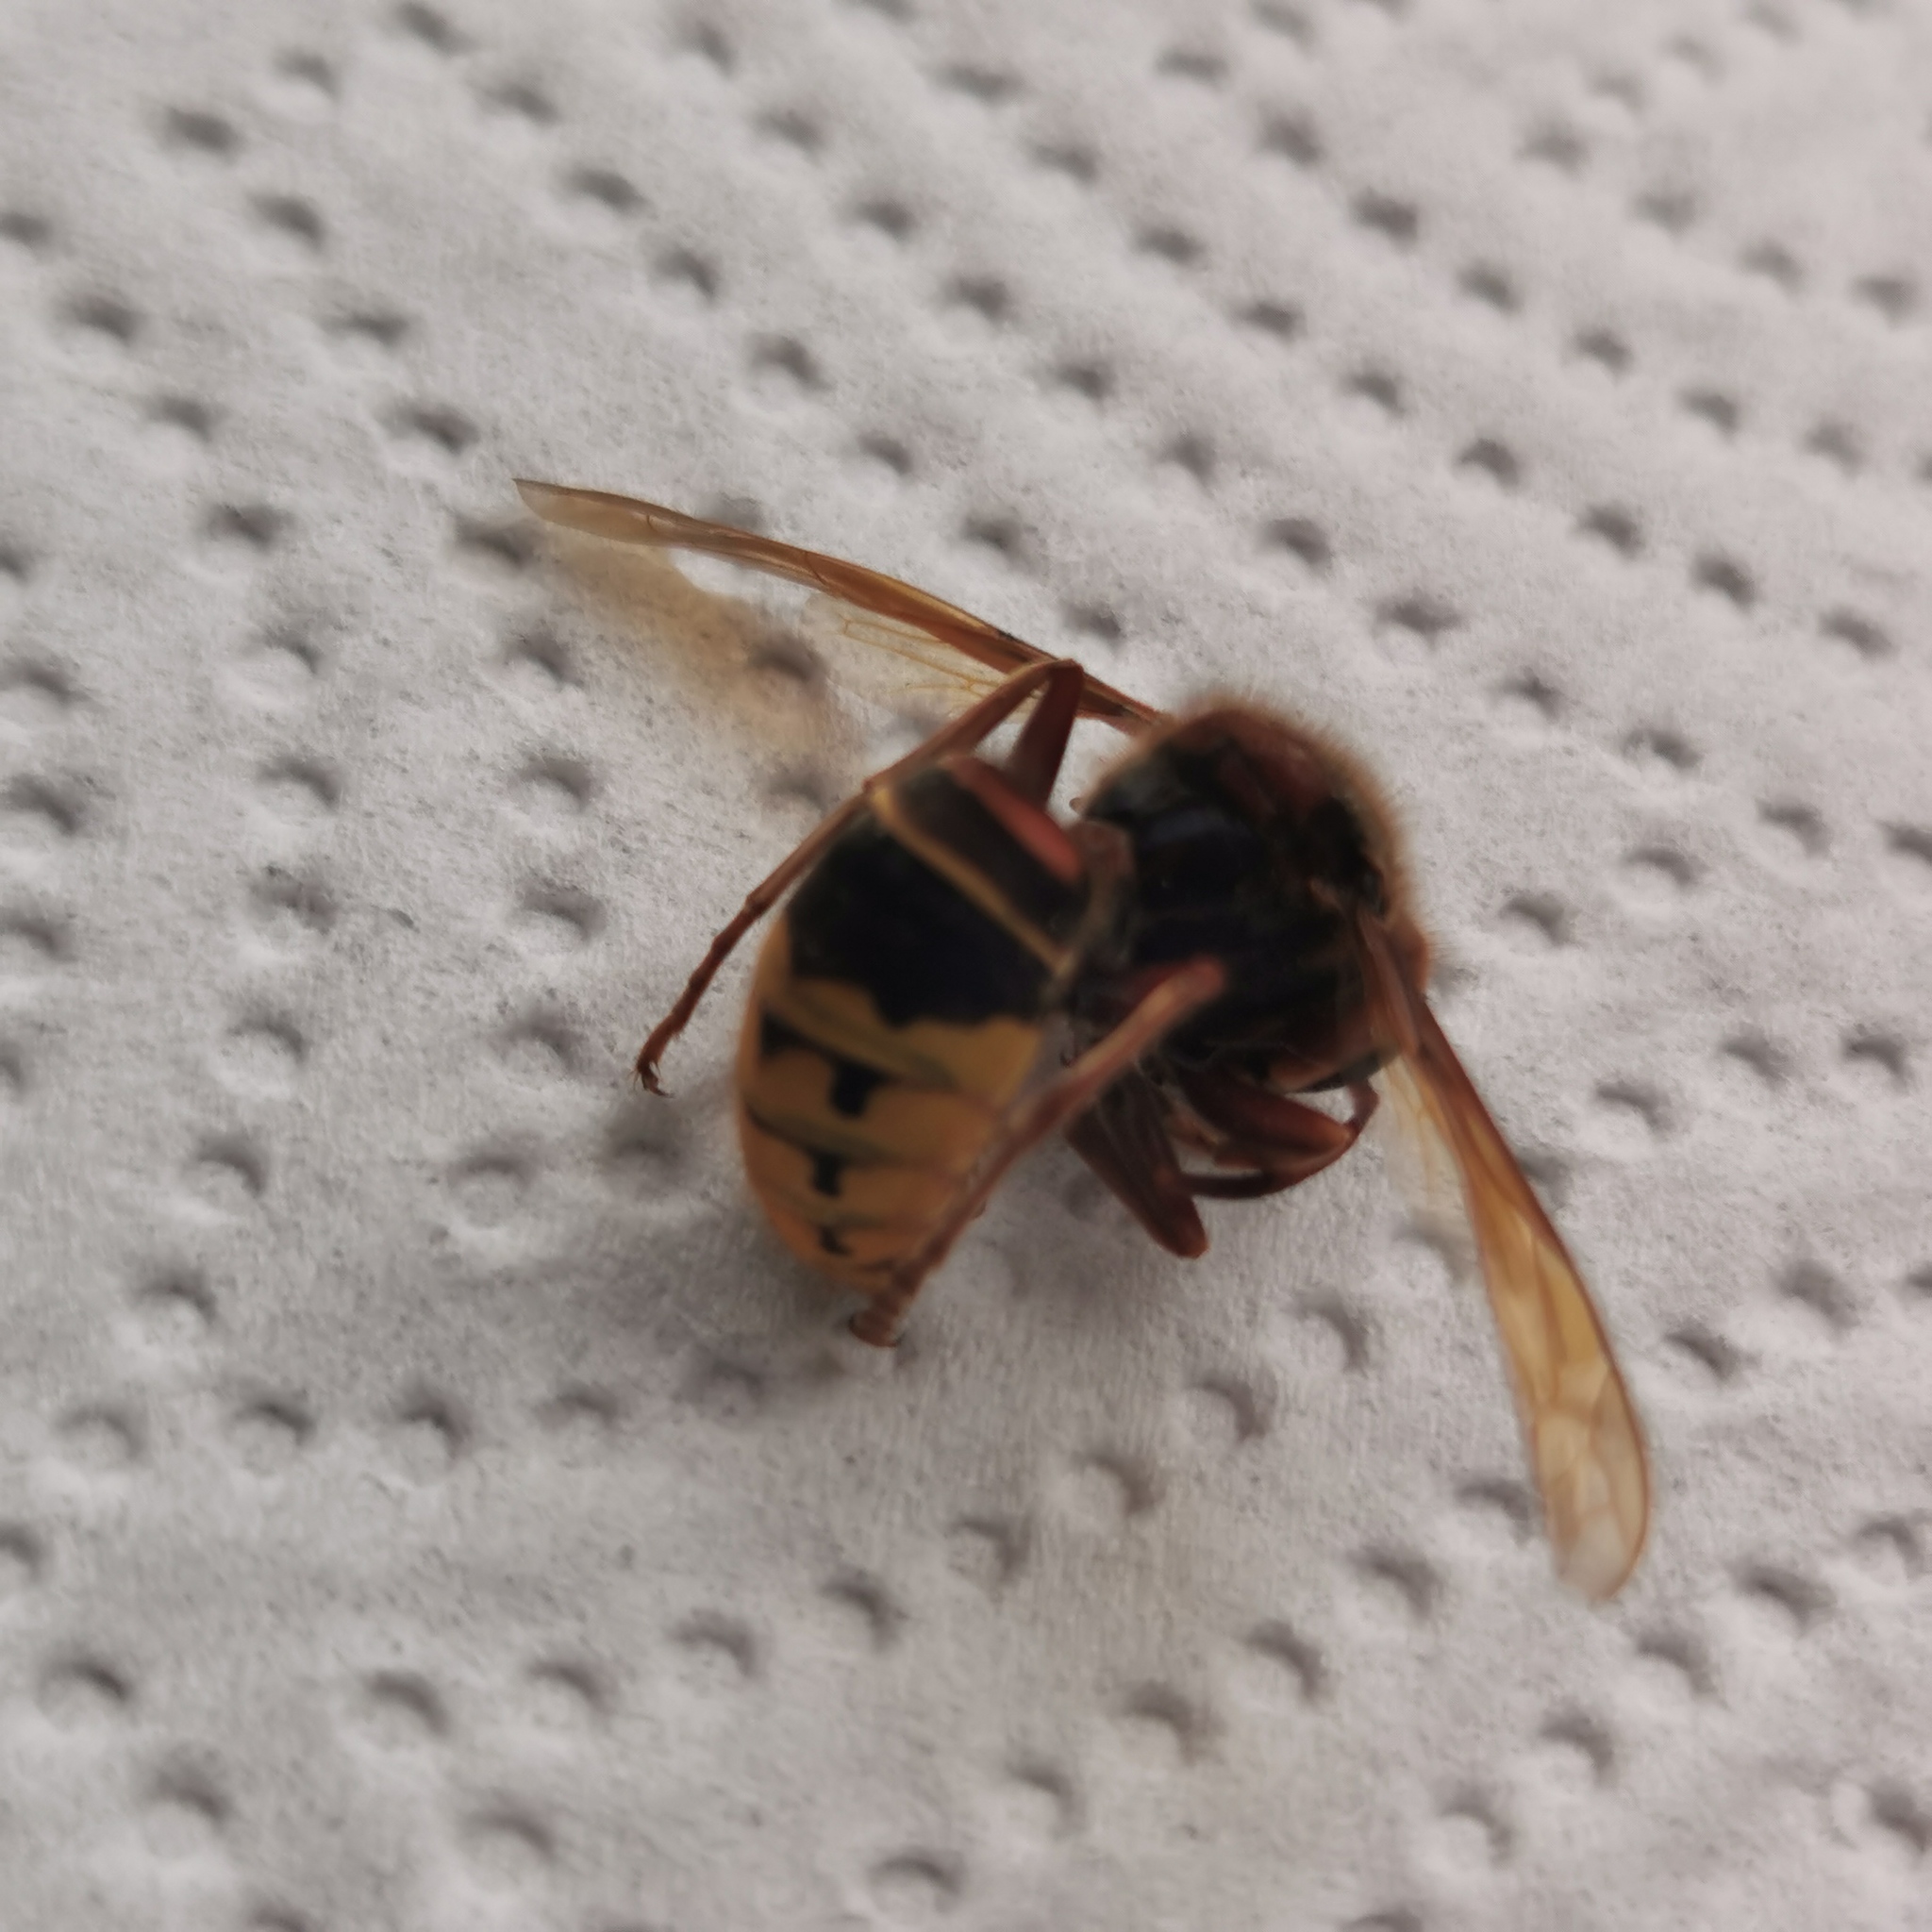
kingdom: Animalia
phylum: Arthropoda
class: Insecta
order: Hymenoptera
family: Vespidae
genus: Vespa
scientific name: Vespa crabro
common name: Hornet
